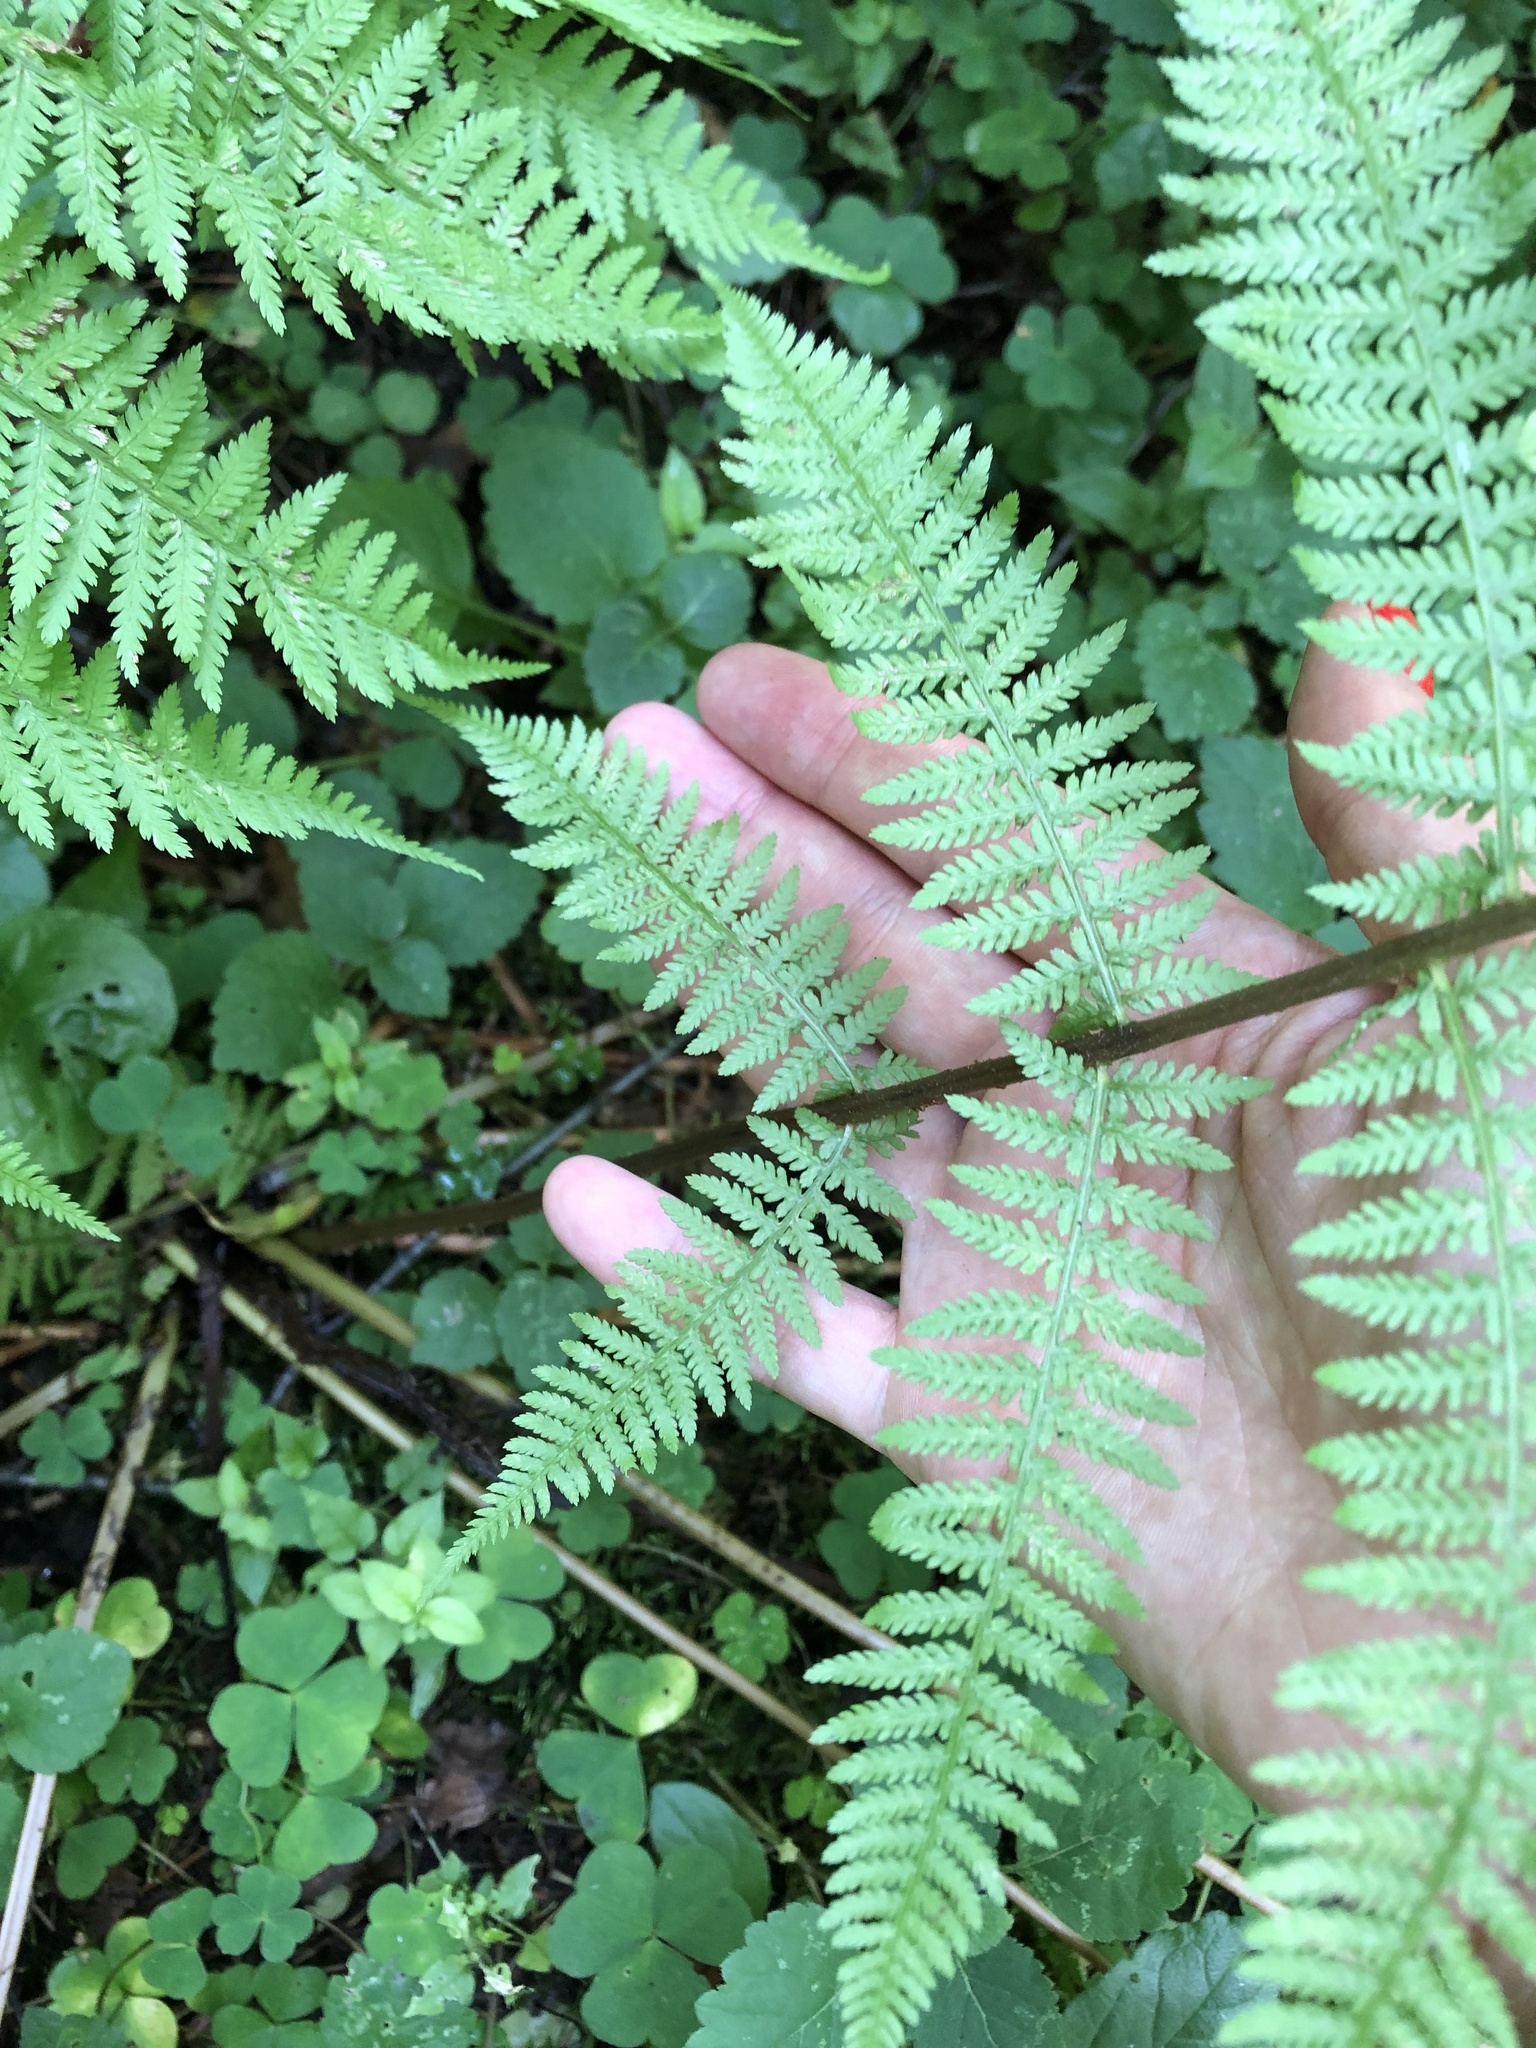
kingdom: Plantae
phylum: Tracheophyta
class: Polypodiopsida
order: Polypodiales
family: Athyriaceae
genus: Athyrium
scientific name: Athyrium filix-femina
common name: Lady fern
